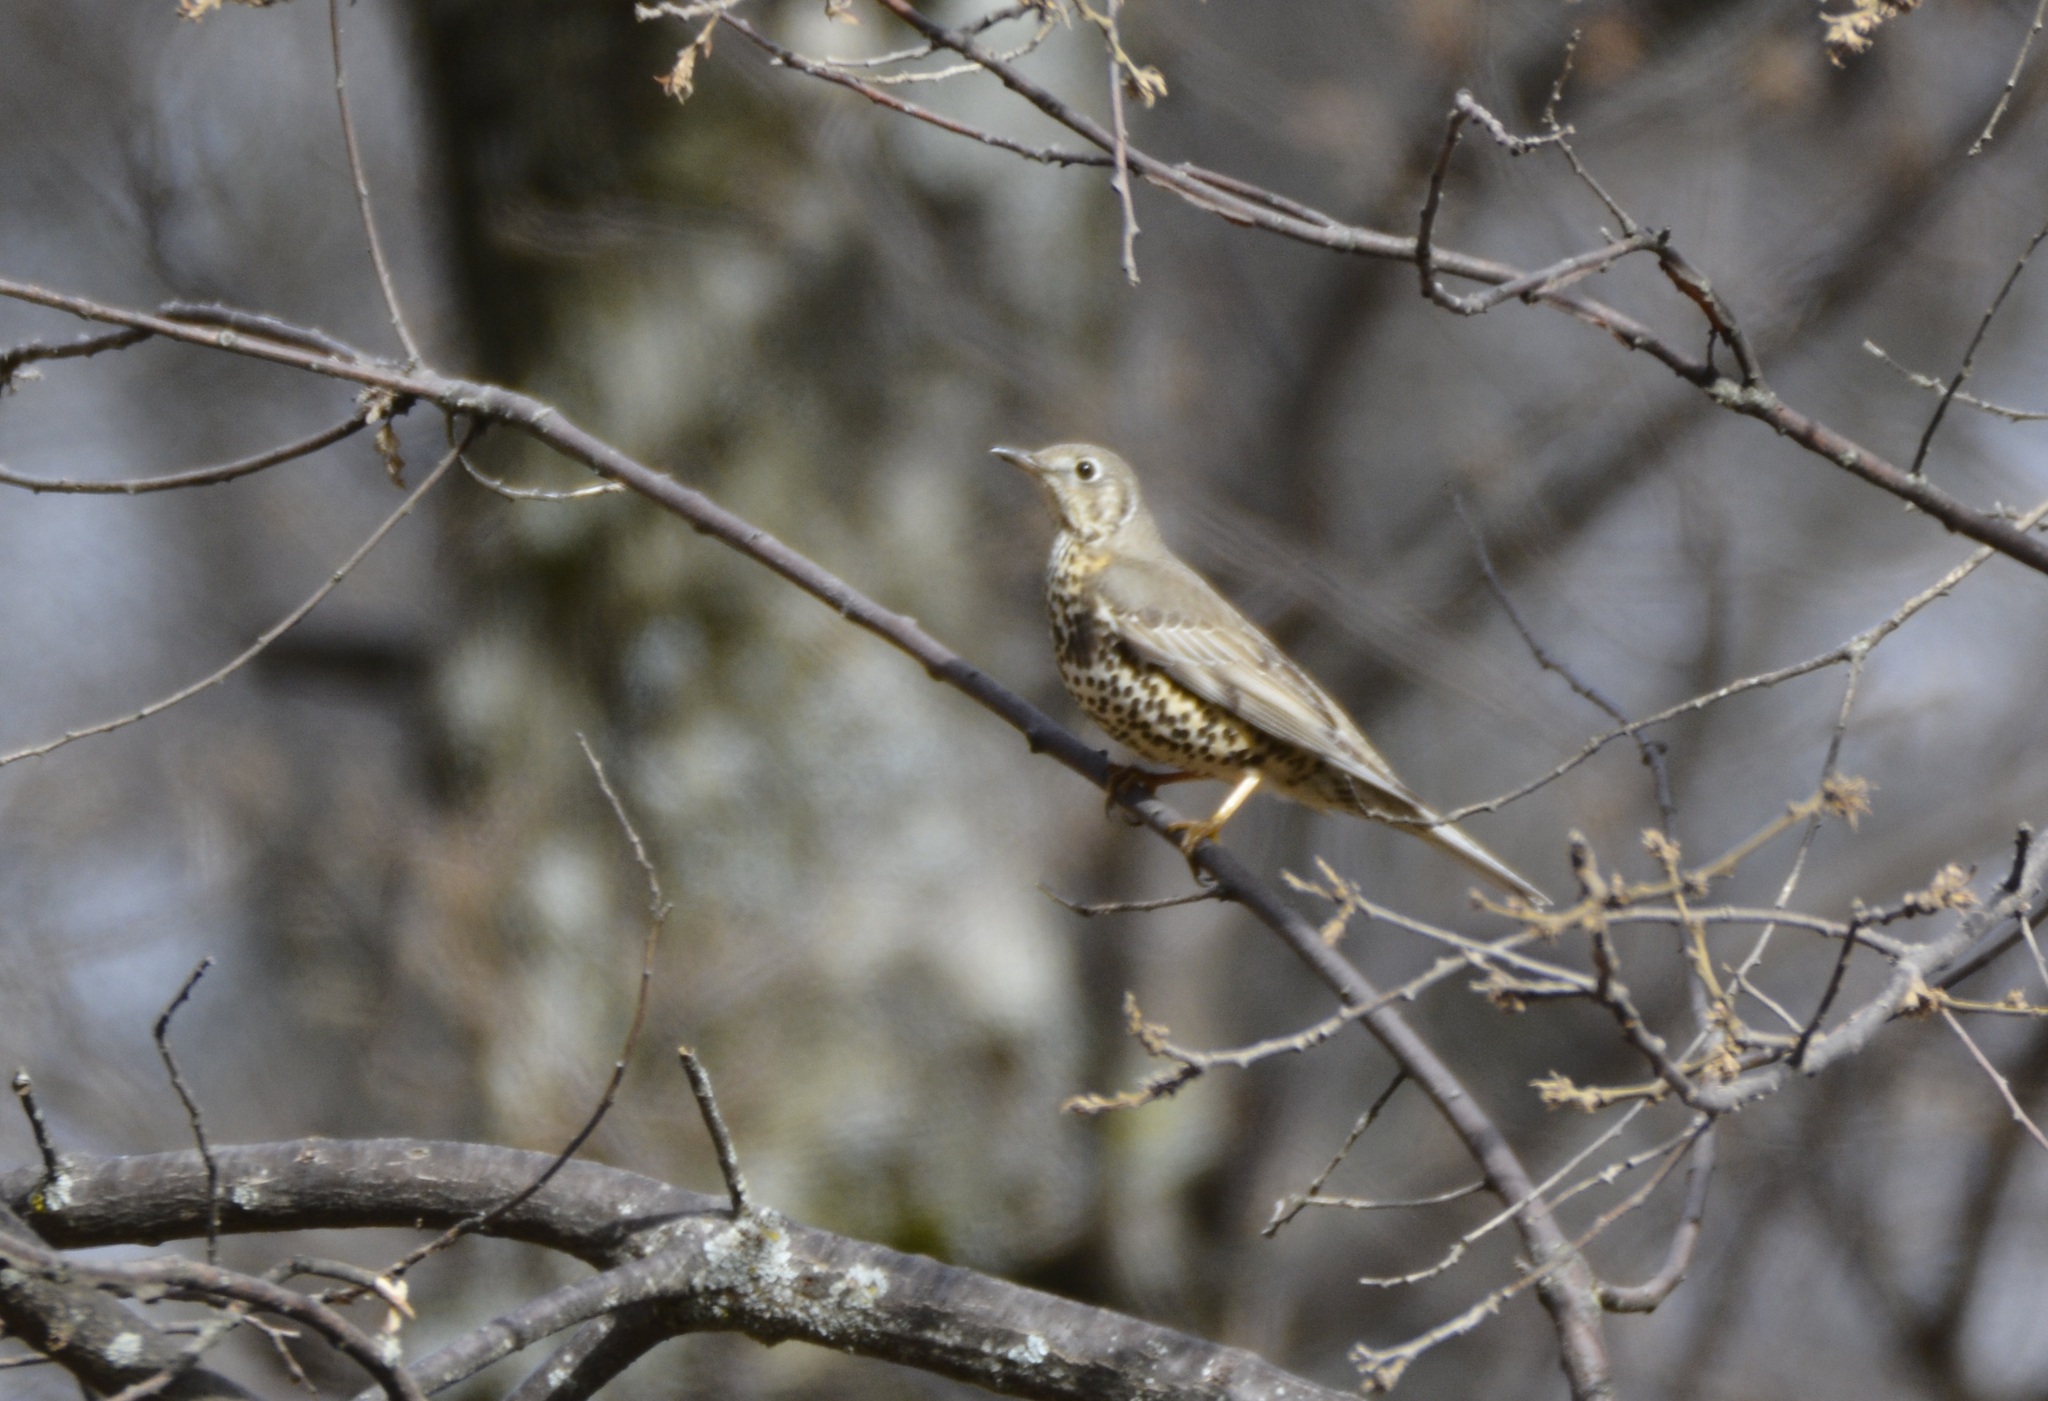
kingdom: Animalia
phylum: Chordata
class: Aves
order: Passeriformes
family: Turdidae
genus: Turdus
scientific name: Turdus viscivorus
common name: Mistle thrush
